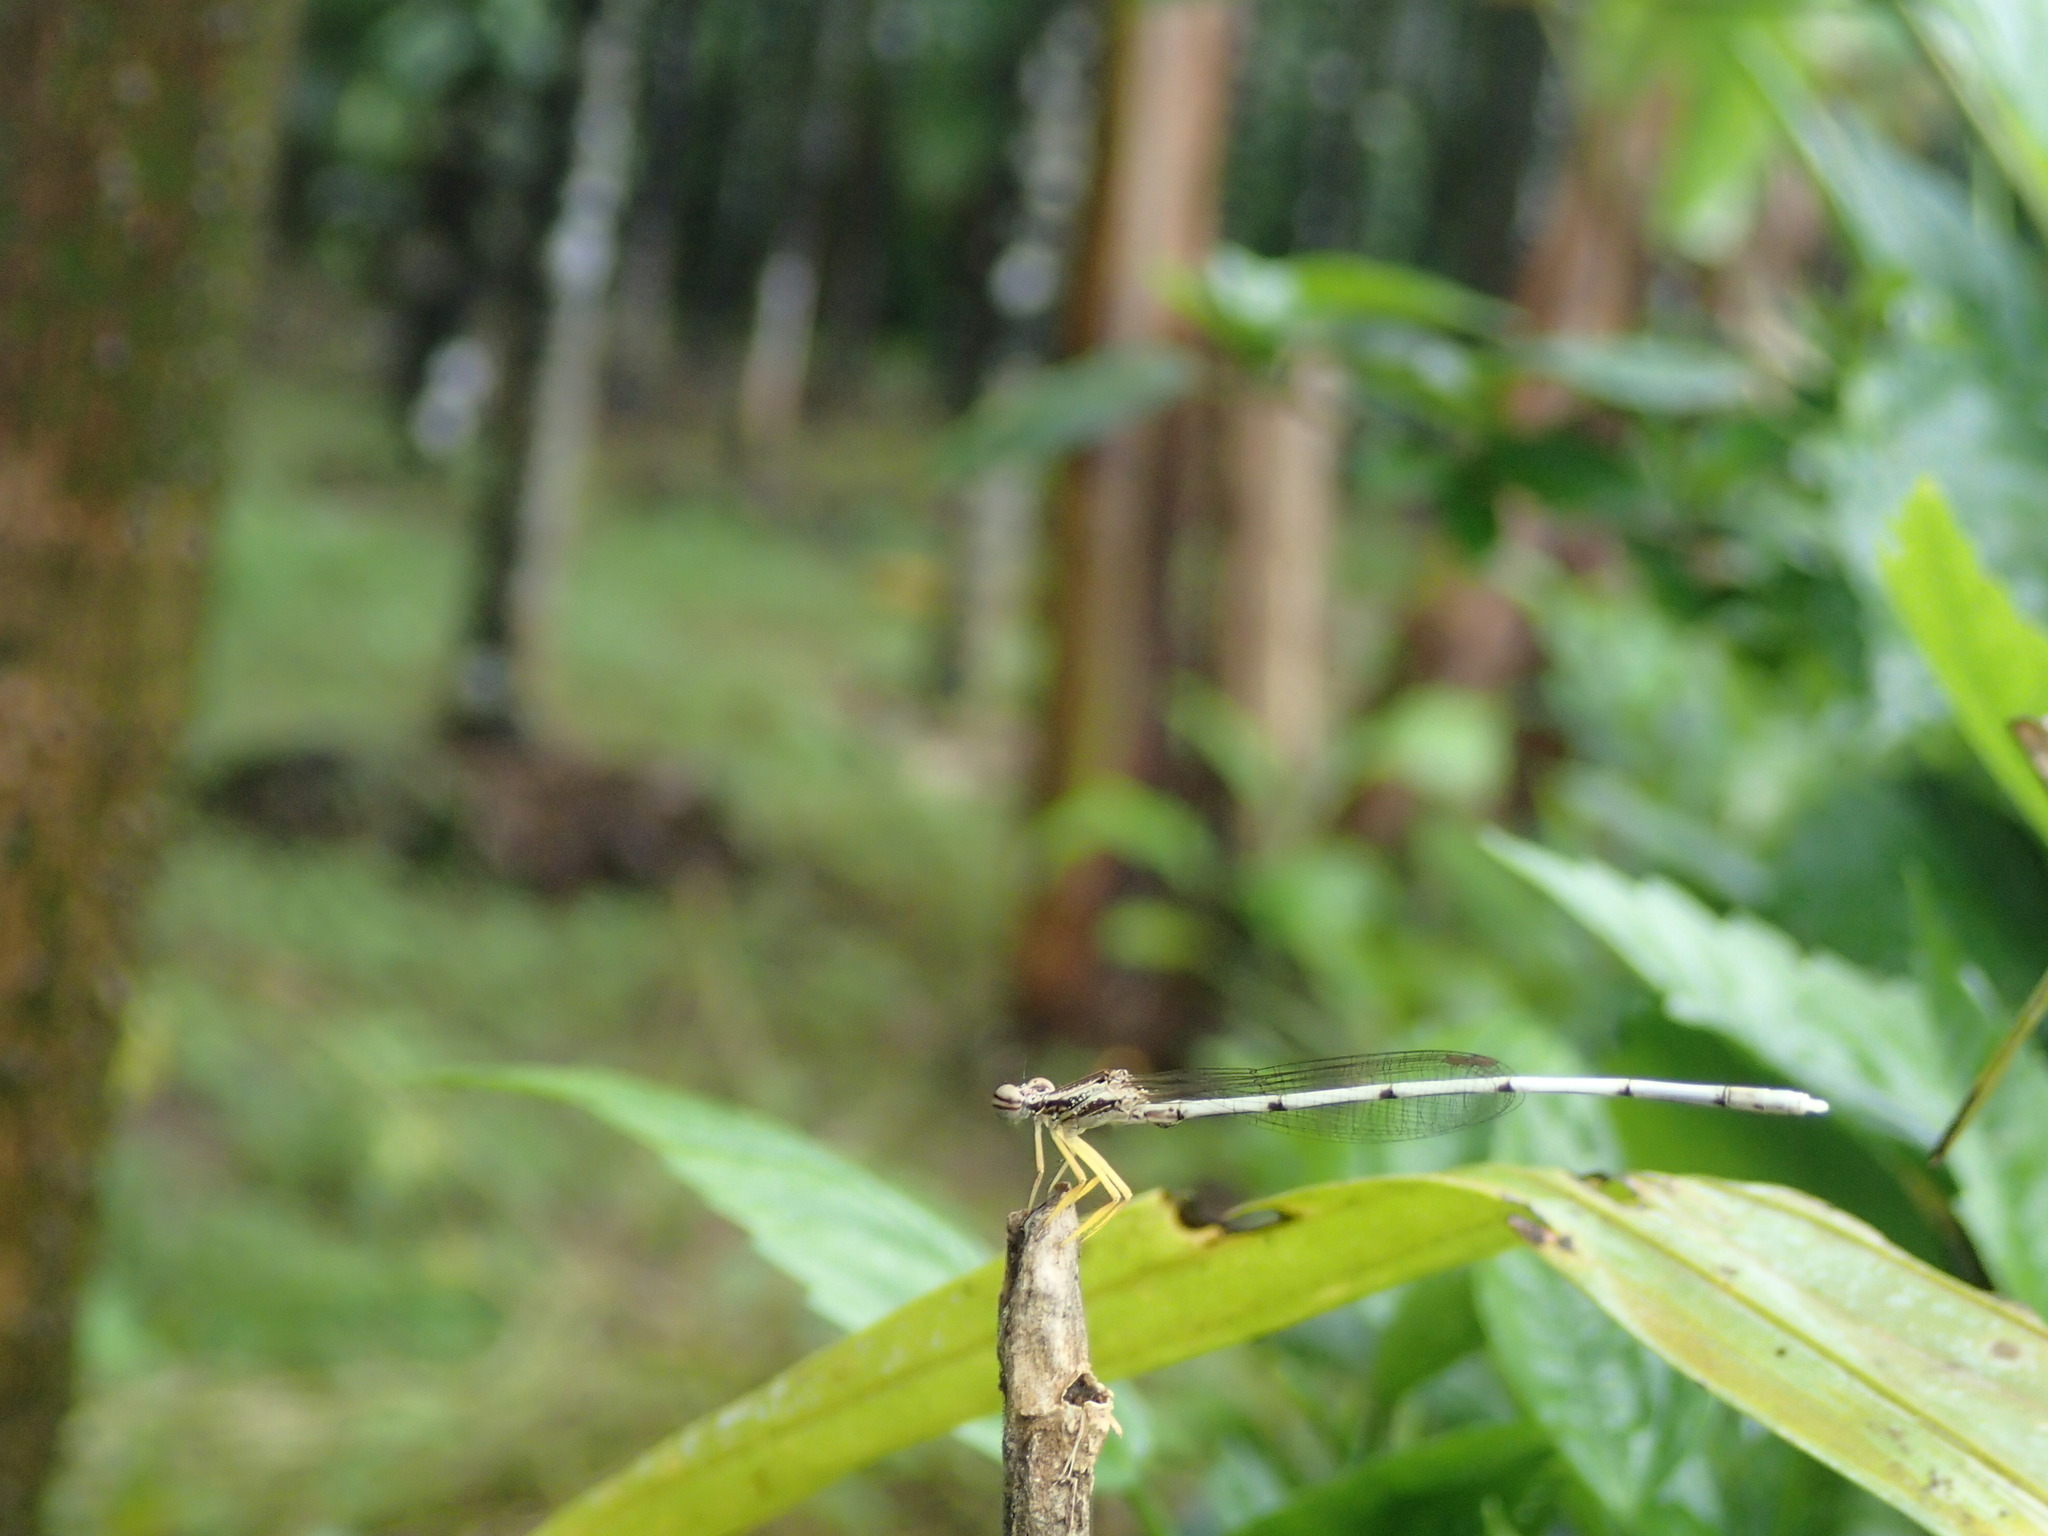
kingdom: Animalia
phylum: Arthropoda
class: Insecta
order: Odonata
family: Platycnemididae
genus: Copera
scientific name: Copera marginipes
